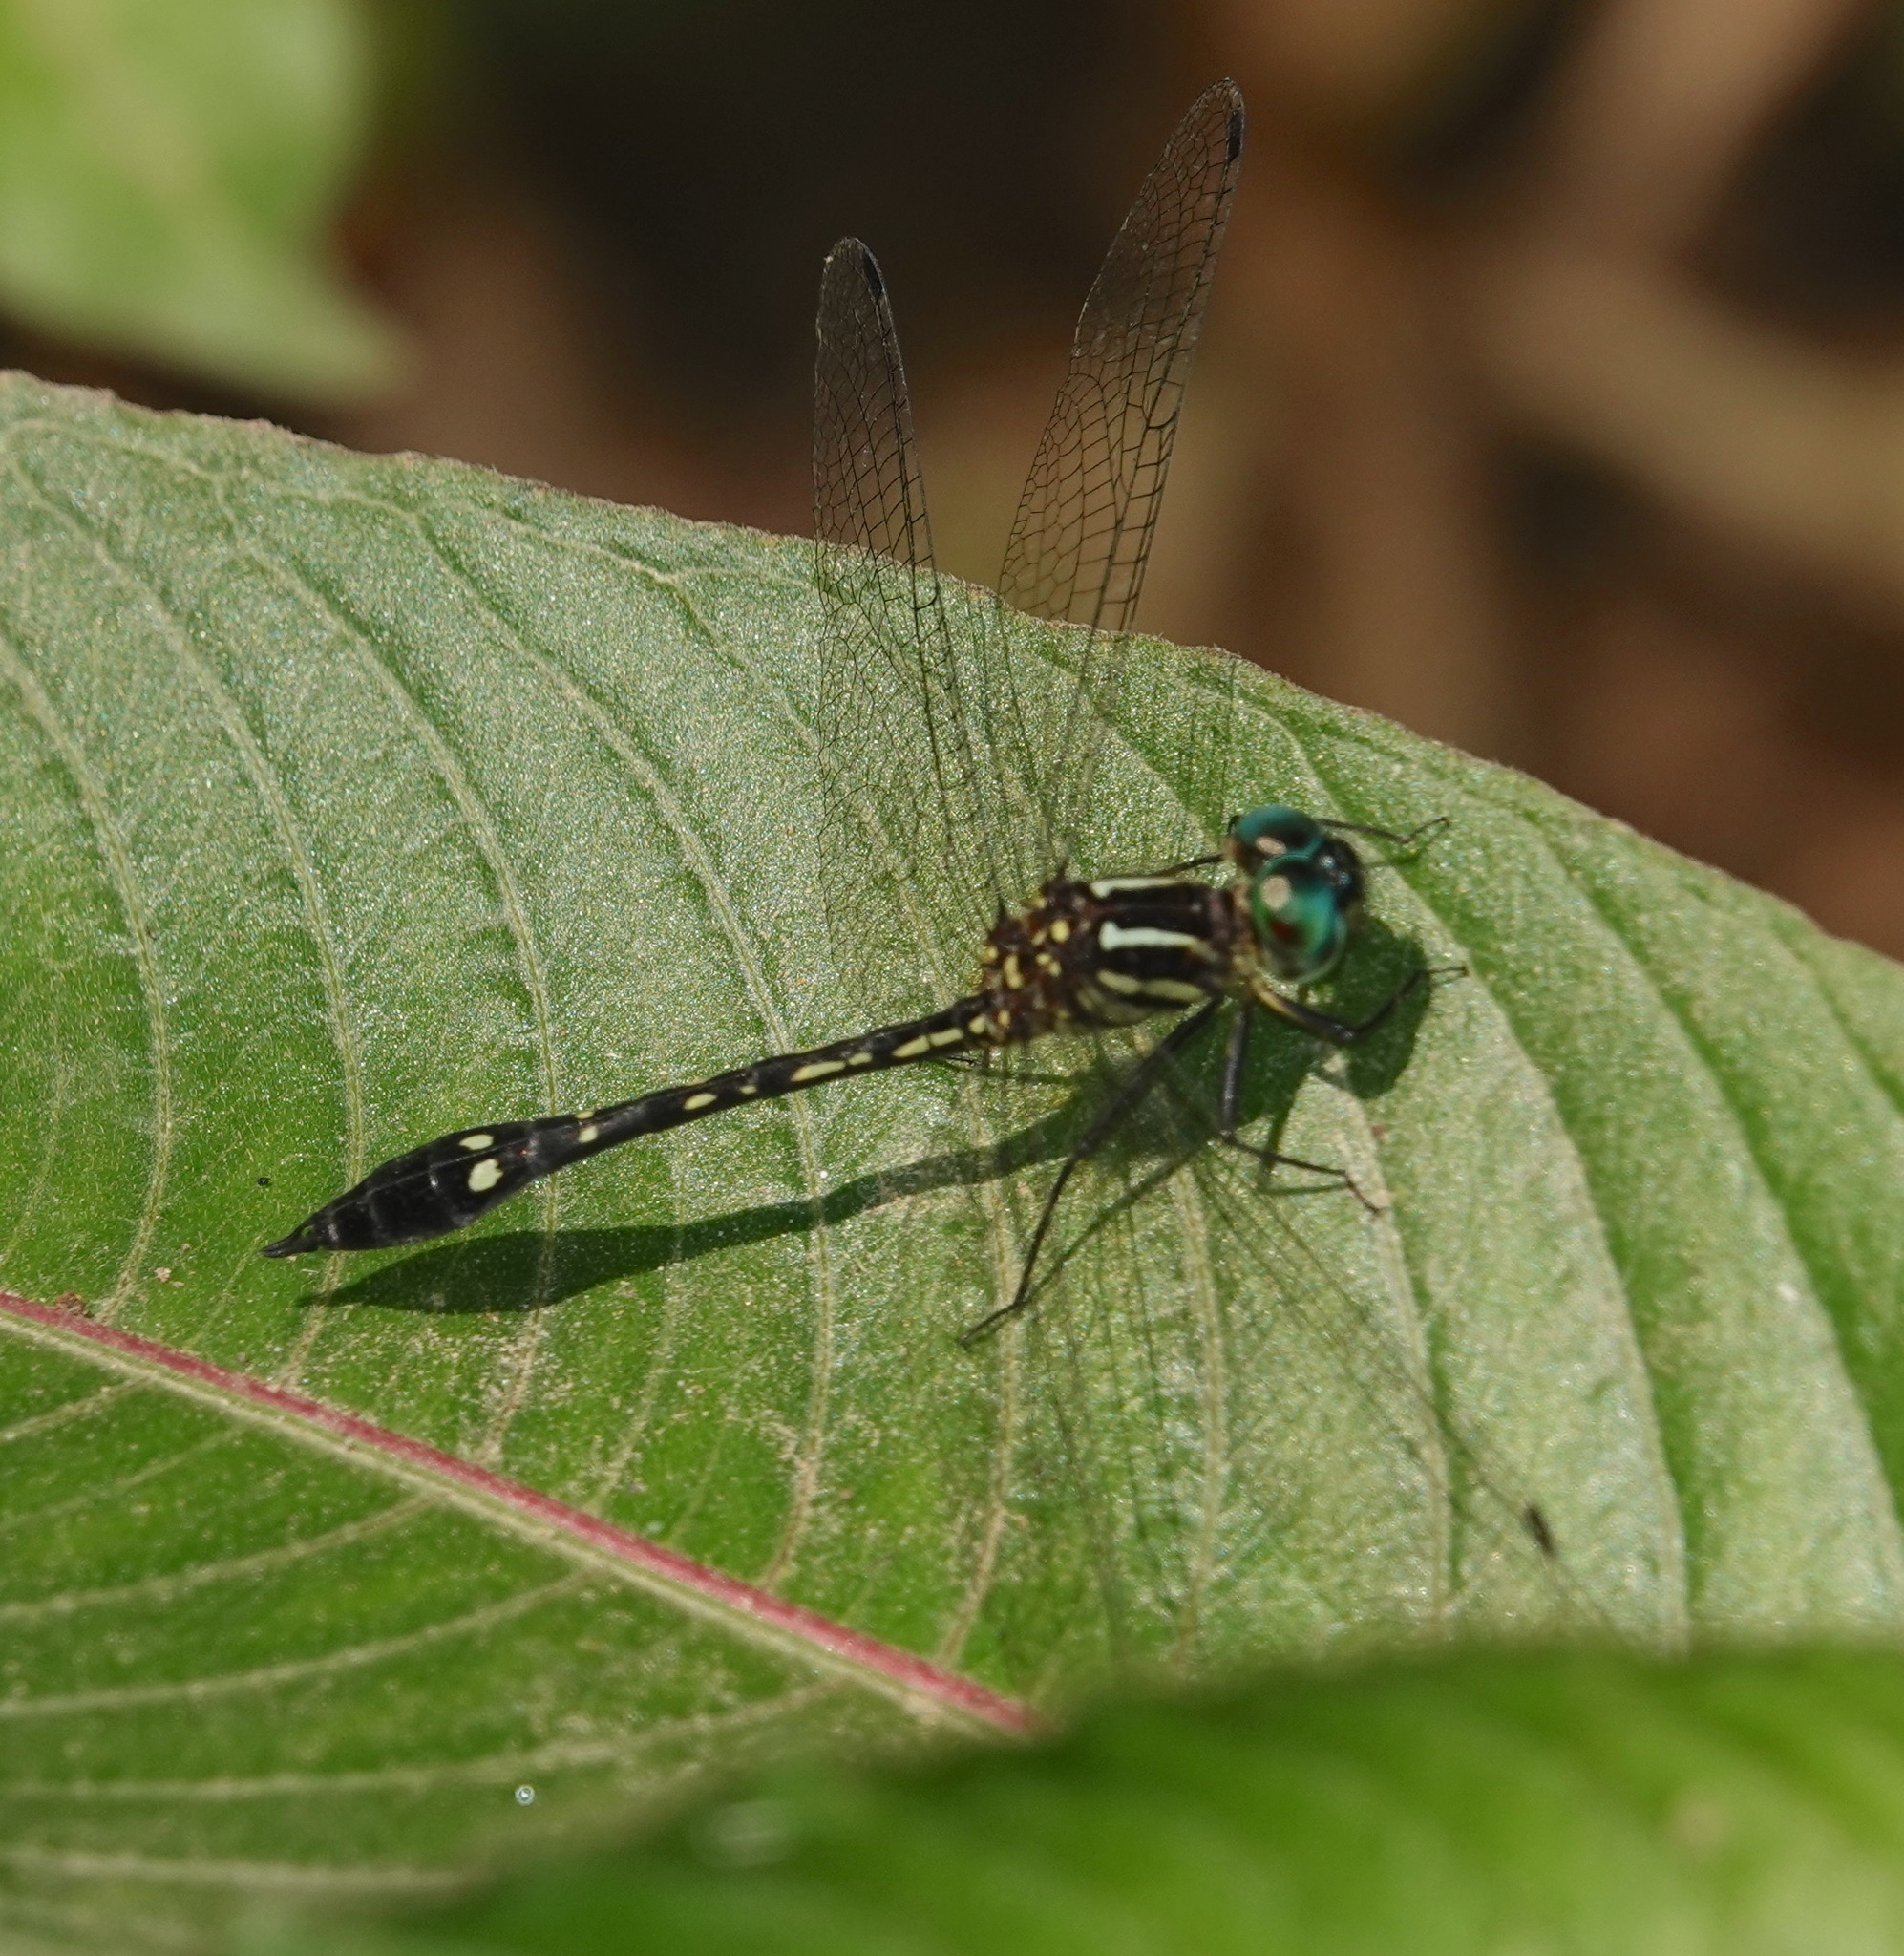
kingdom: Animalia
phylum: Arthropoda
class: Insecta
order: Odonata
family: Libellulidae
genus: Macrothemis
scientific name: Macrothemis tessellata
